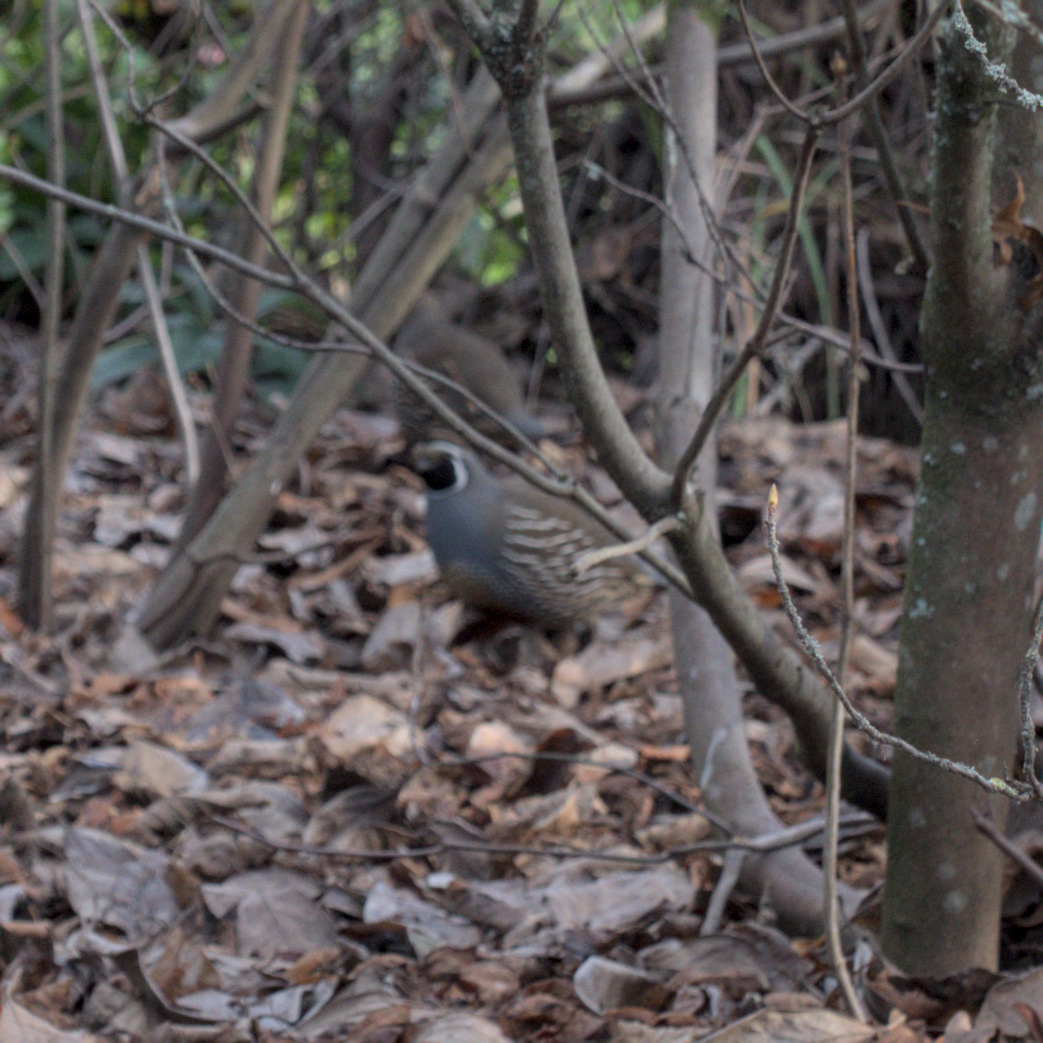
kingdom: Animalia
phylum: Chordata
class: Aves
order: Galliformes
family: Odontophoridae
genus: Callipepla
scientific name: Callipepla californica
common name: California quail
